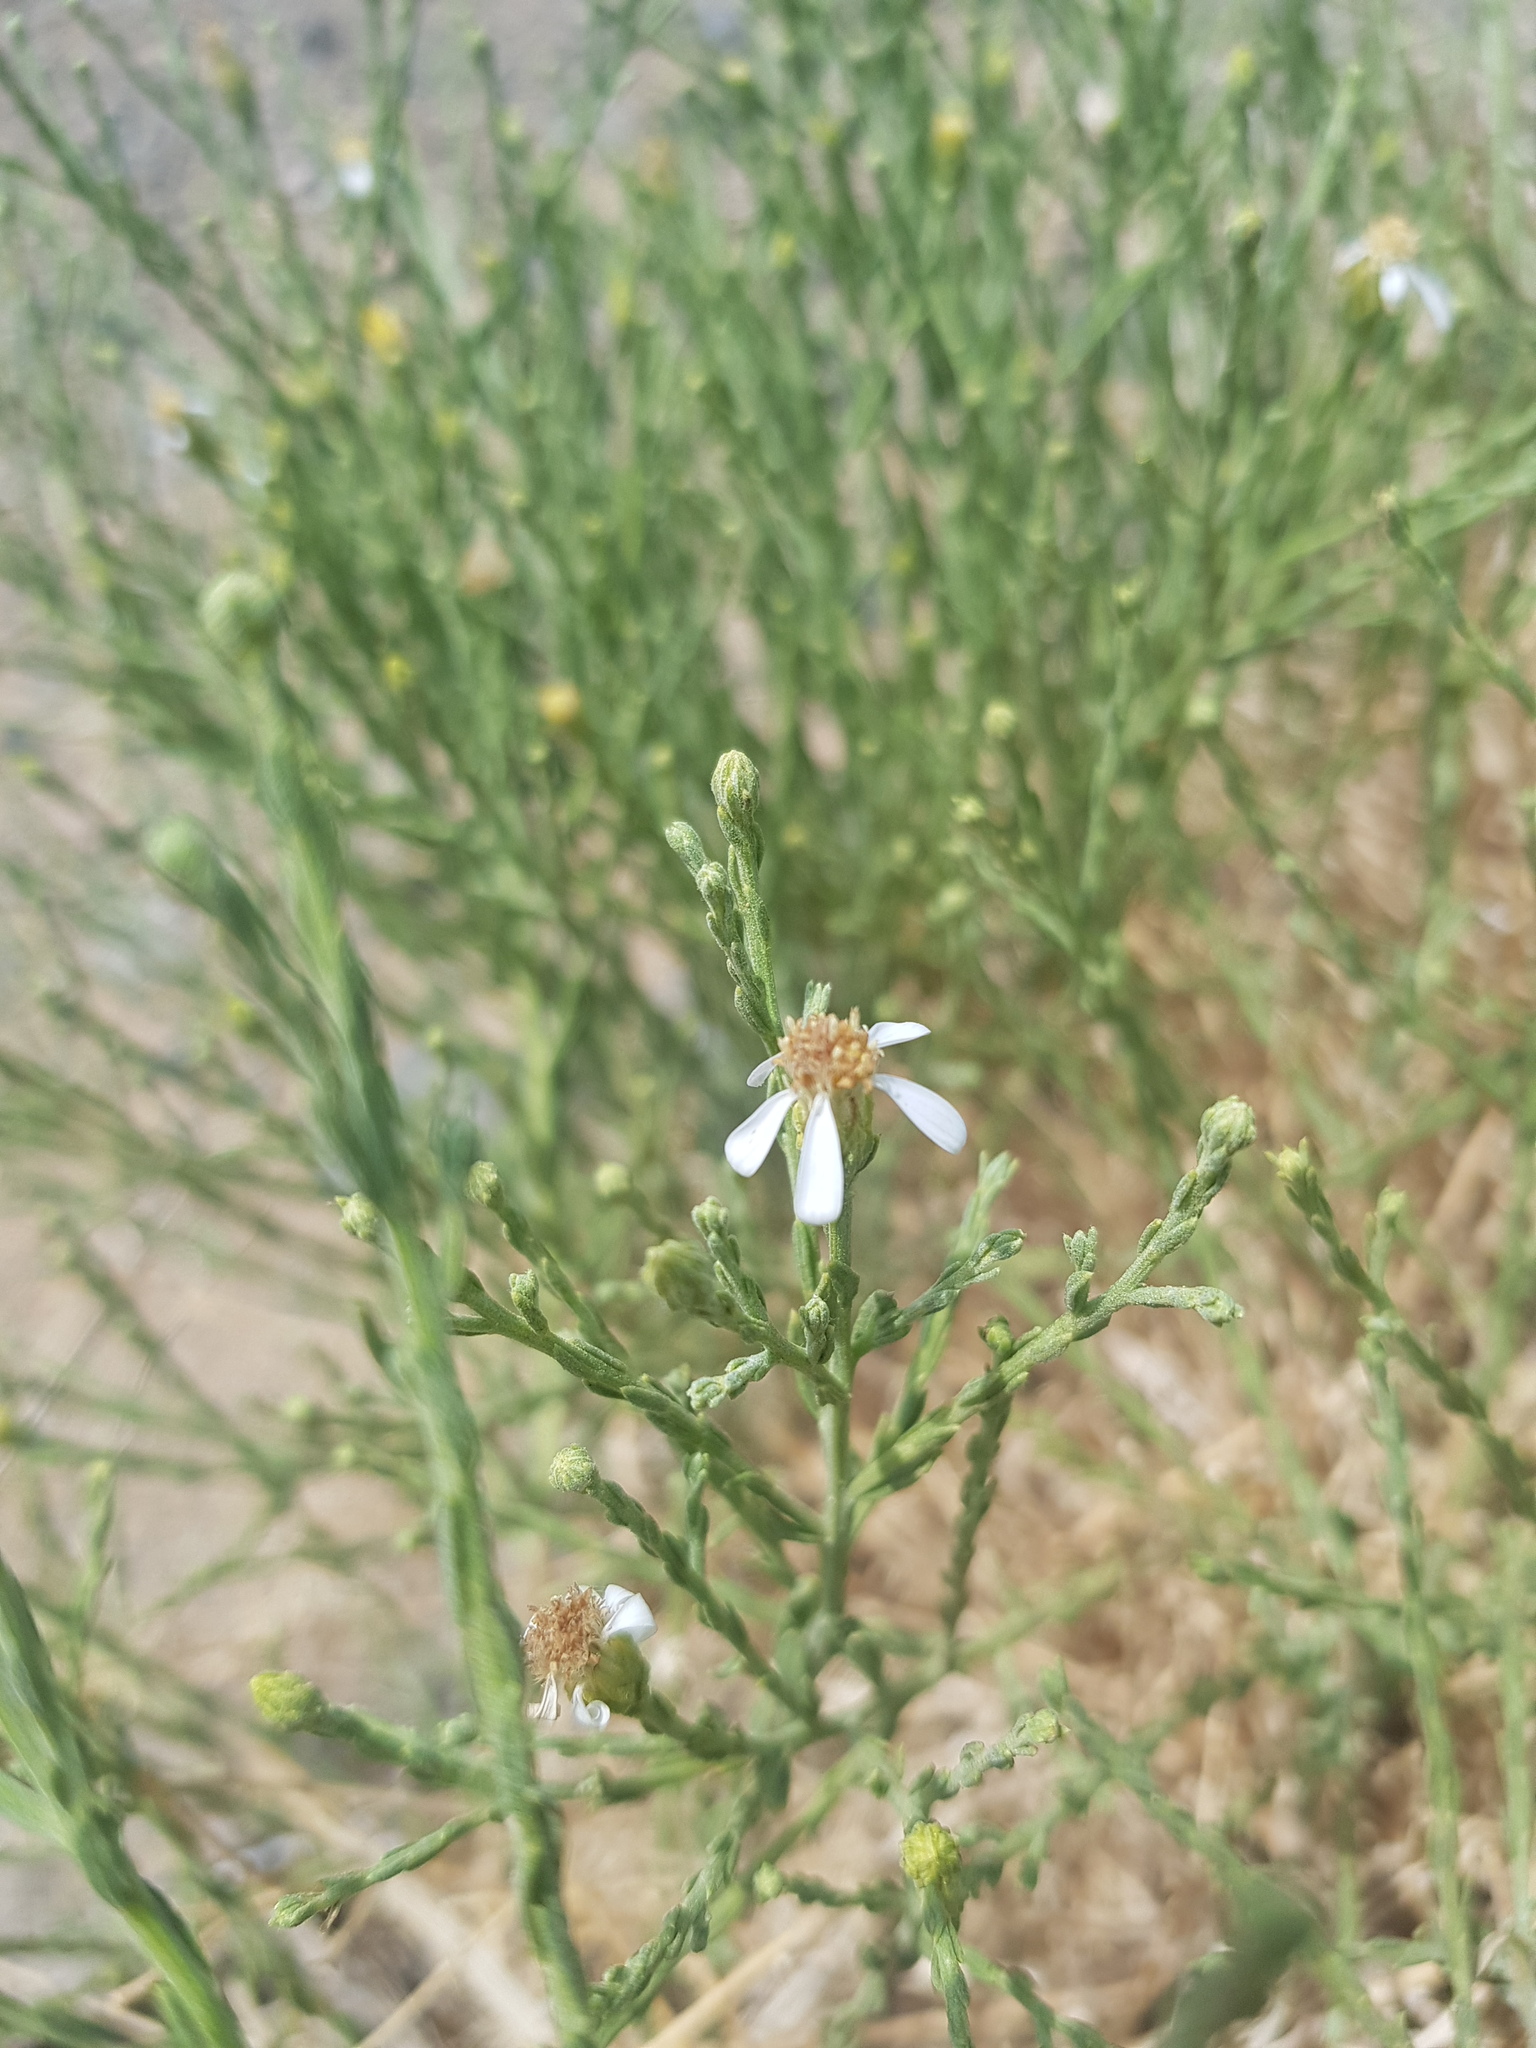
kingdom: Plantae
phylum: Tracheophyta
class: Magnoliopsida
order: Asterales
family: Asteraceae
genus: Asterothamnus
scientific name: Asterothamnus molliusculus
